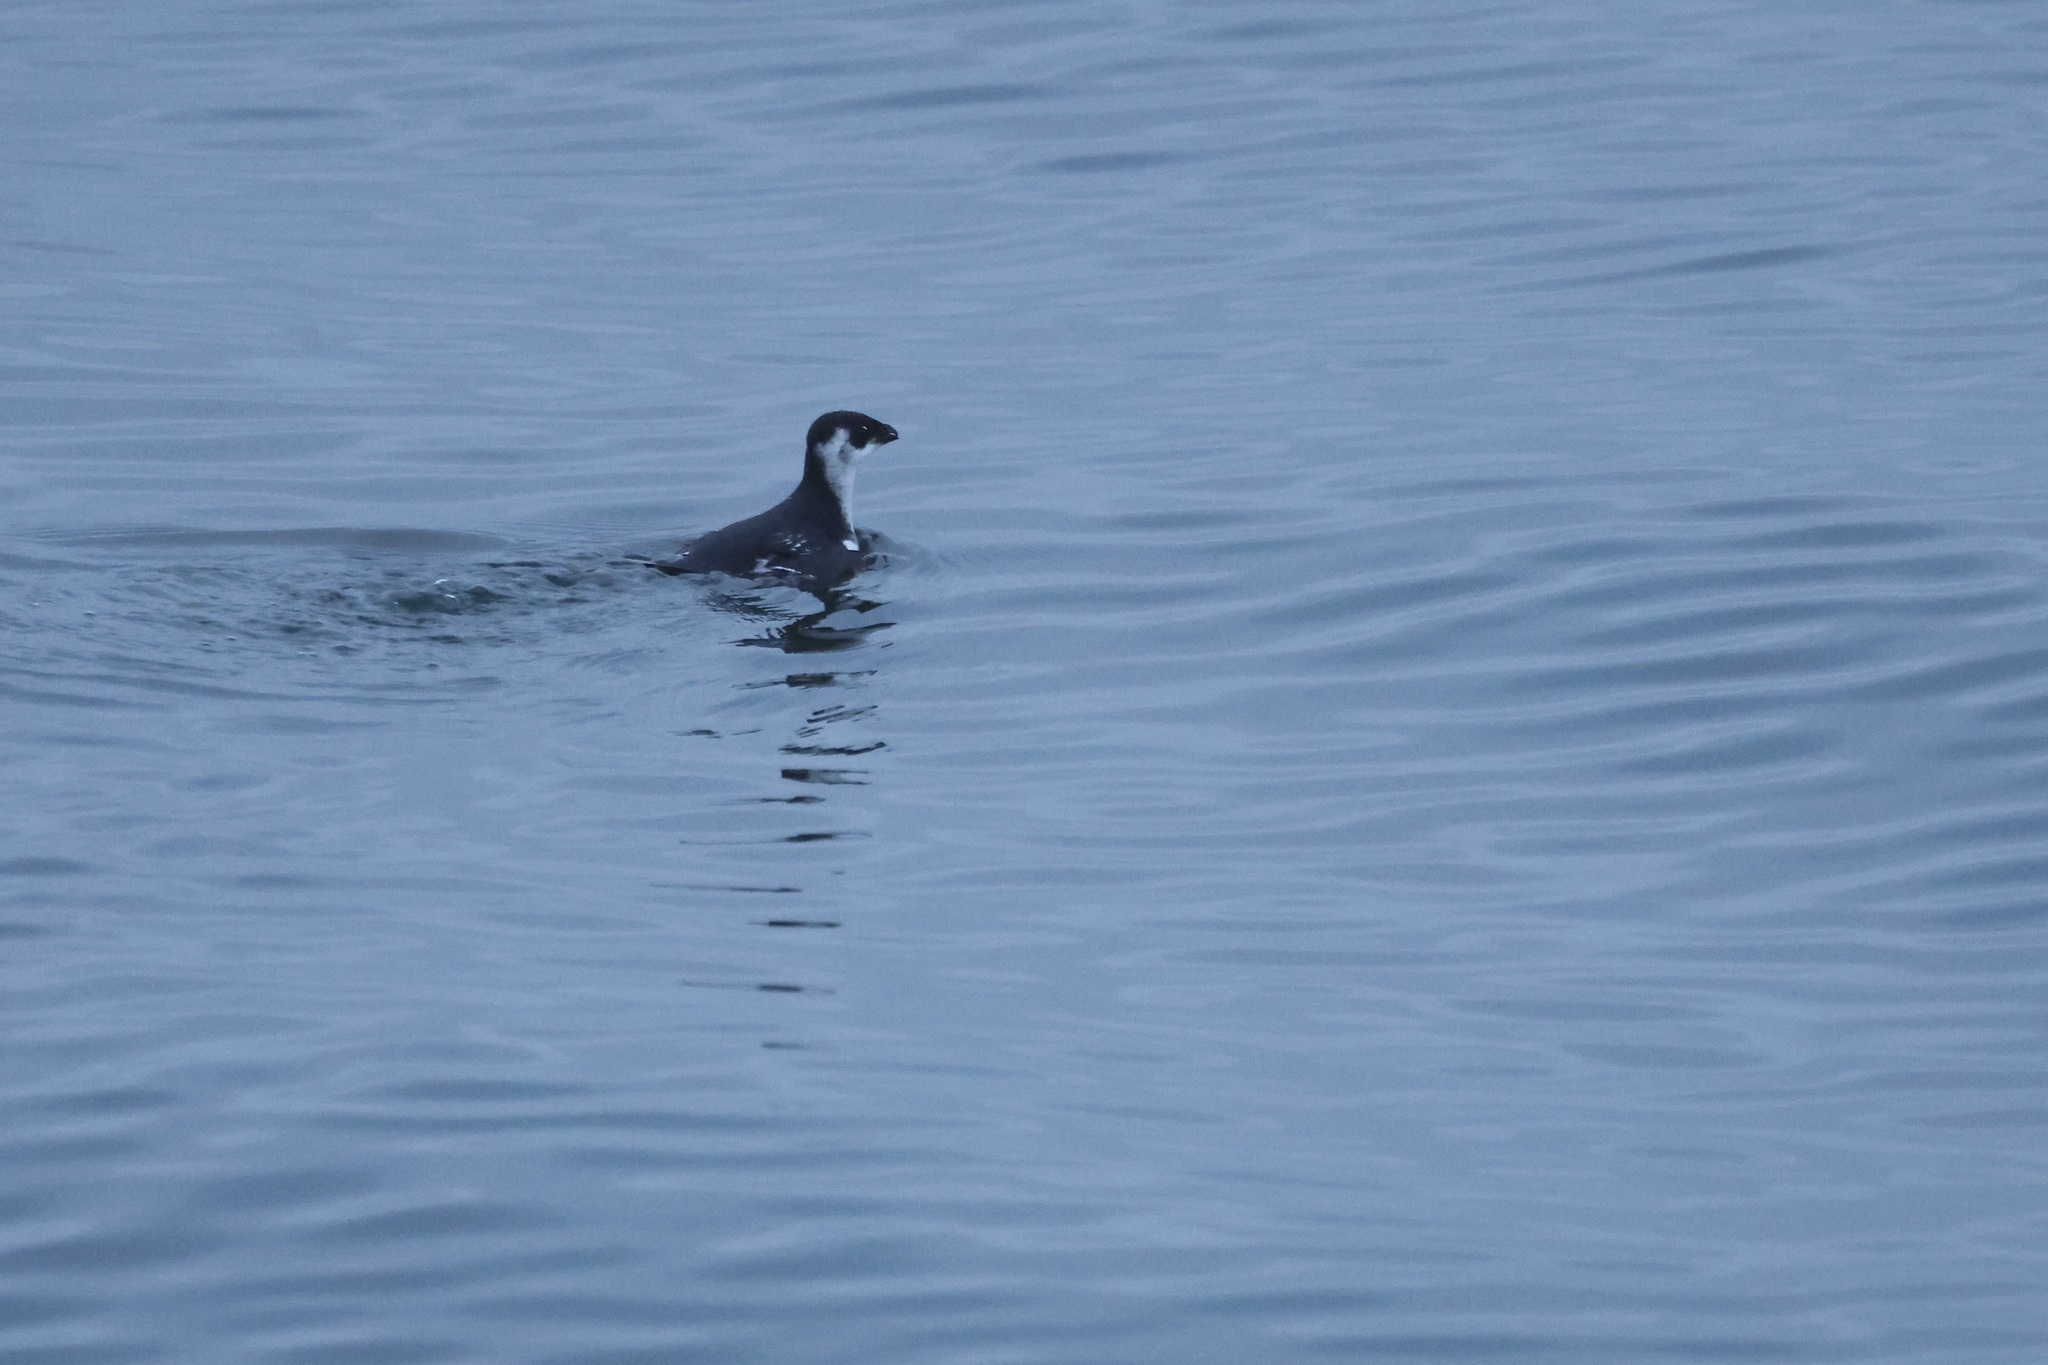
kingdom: Animalia
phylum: Chordata
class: Aves
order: Charadriiformes
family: Alcidae
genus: Alle
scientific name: Alle alle
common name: Little auk
